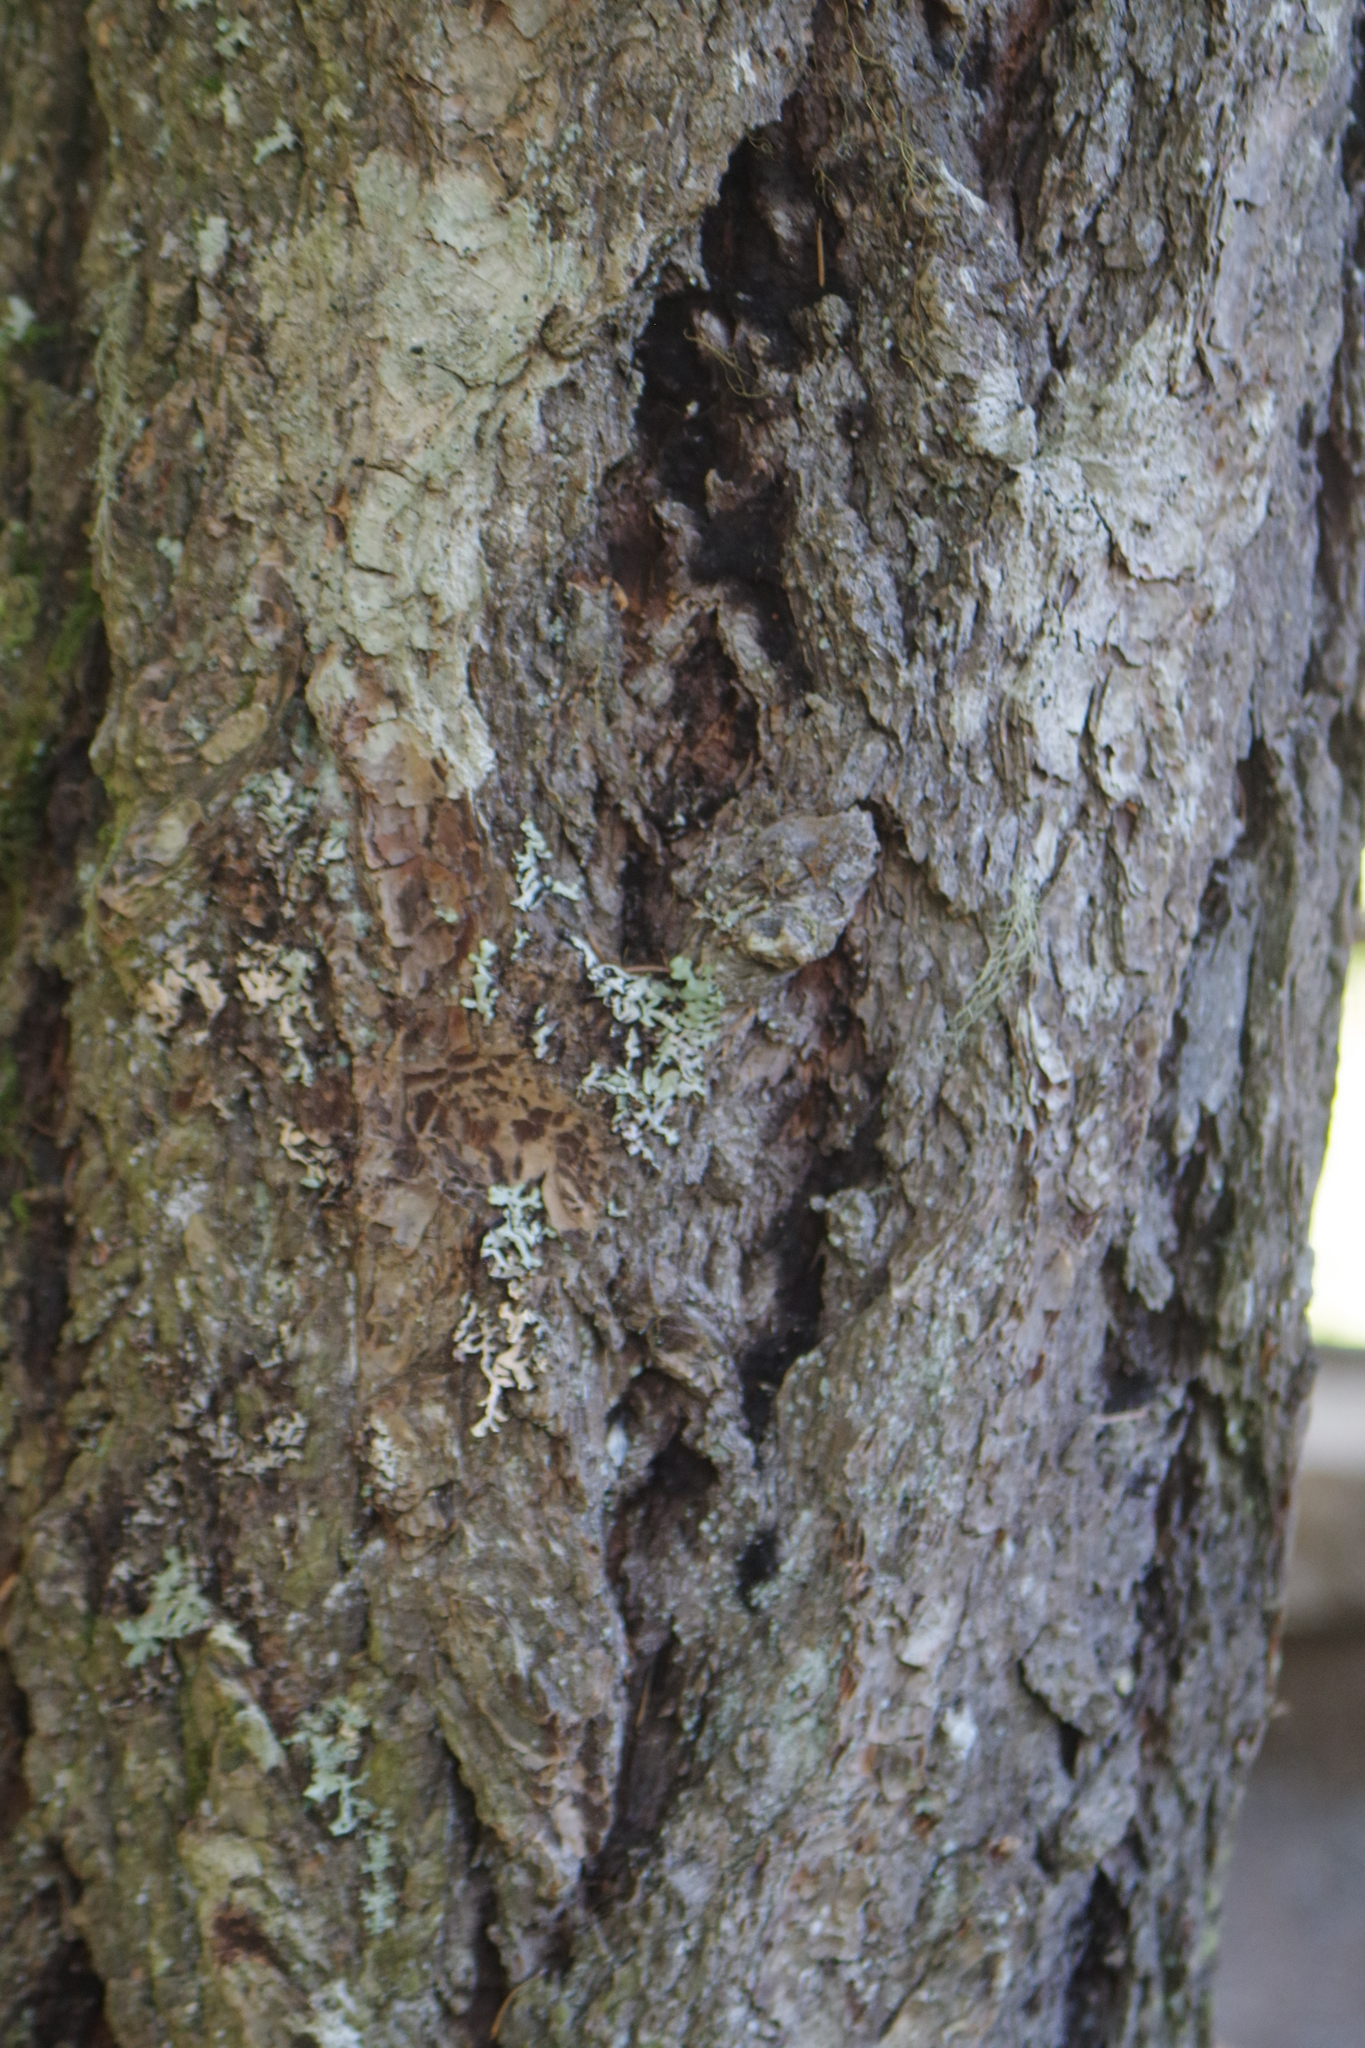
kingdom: Plantae
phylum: Tracheophyta
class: Pinopsida
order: Pinales
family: Pinaceae
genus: Pseudotsuga
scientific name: Pseudotsuga menziesii
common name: Douglas fir
